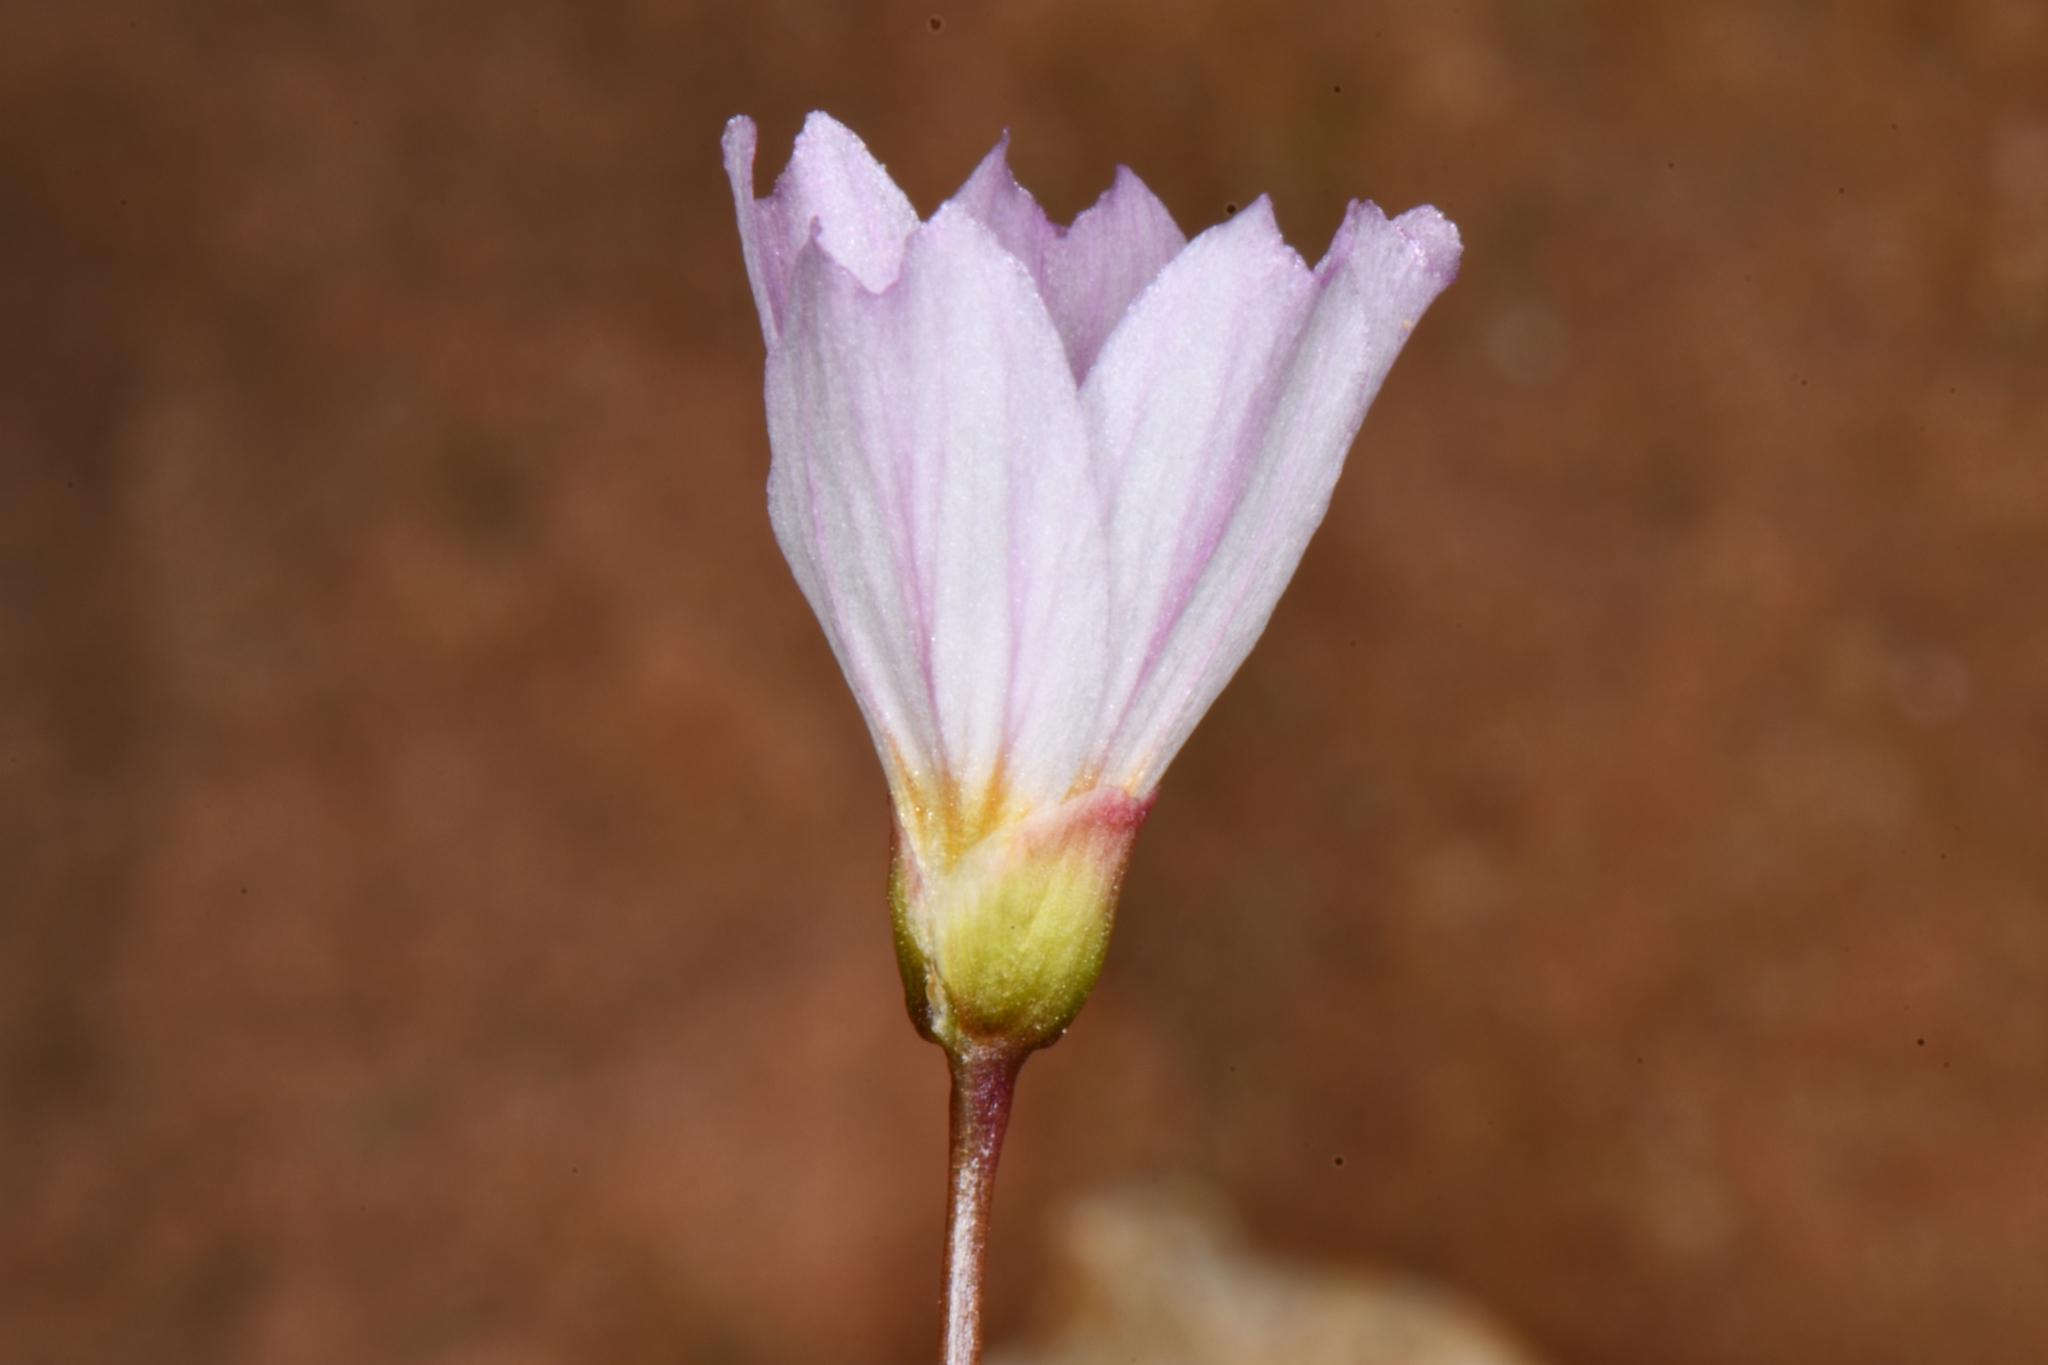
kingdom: Plantae
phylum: Tracheophyta
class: Magnoliopsida
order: Caryophyllales
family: Montiaceae
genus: Claytonia
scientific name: Claytonia rosea
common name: Rocky mountain spring-beauty
